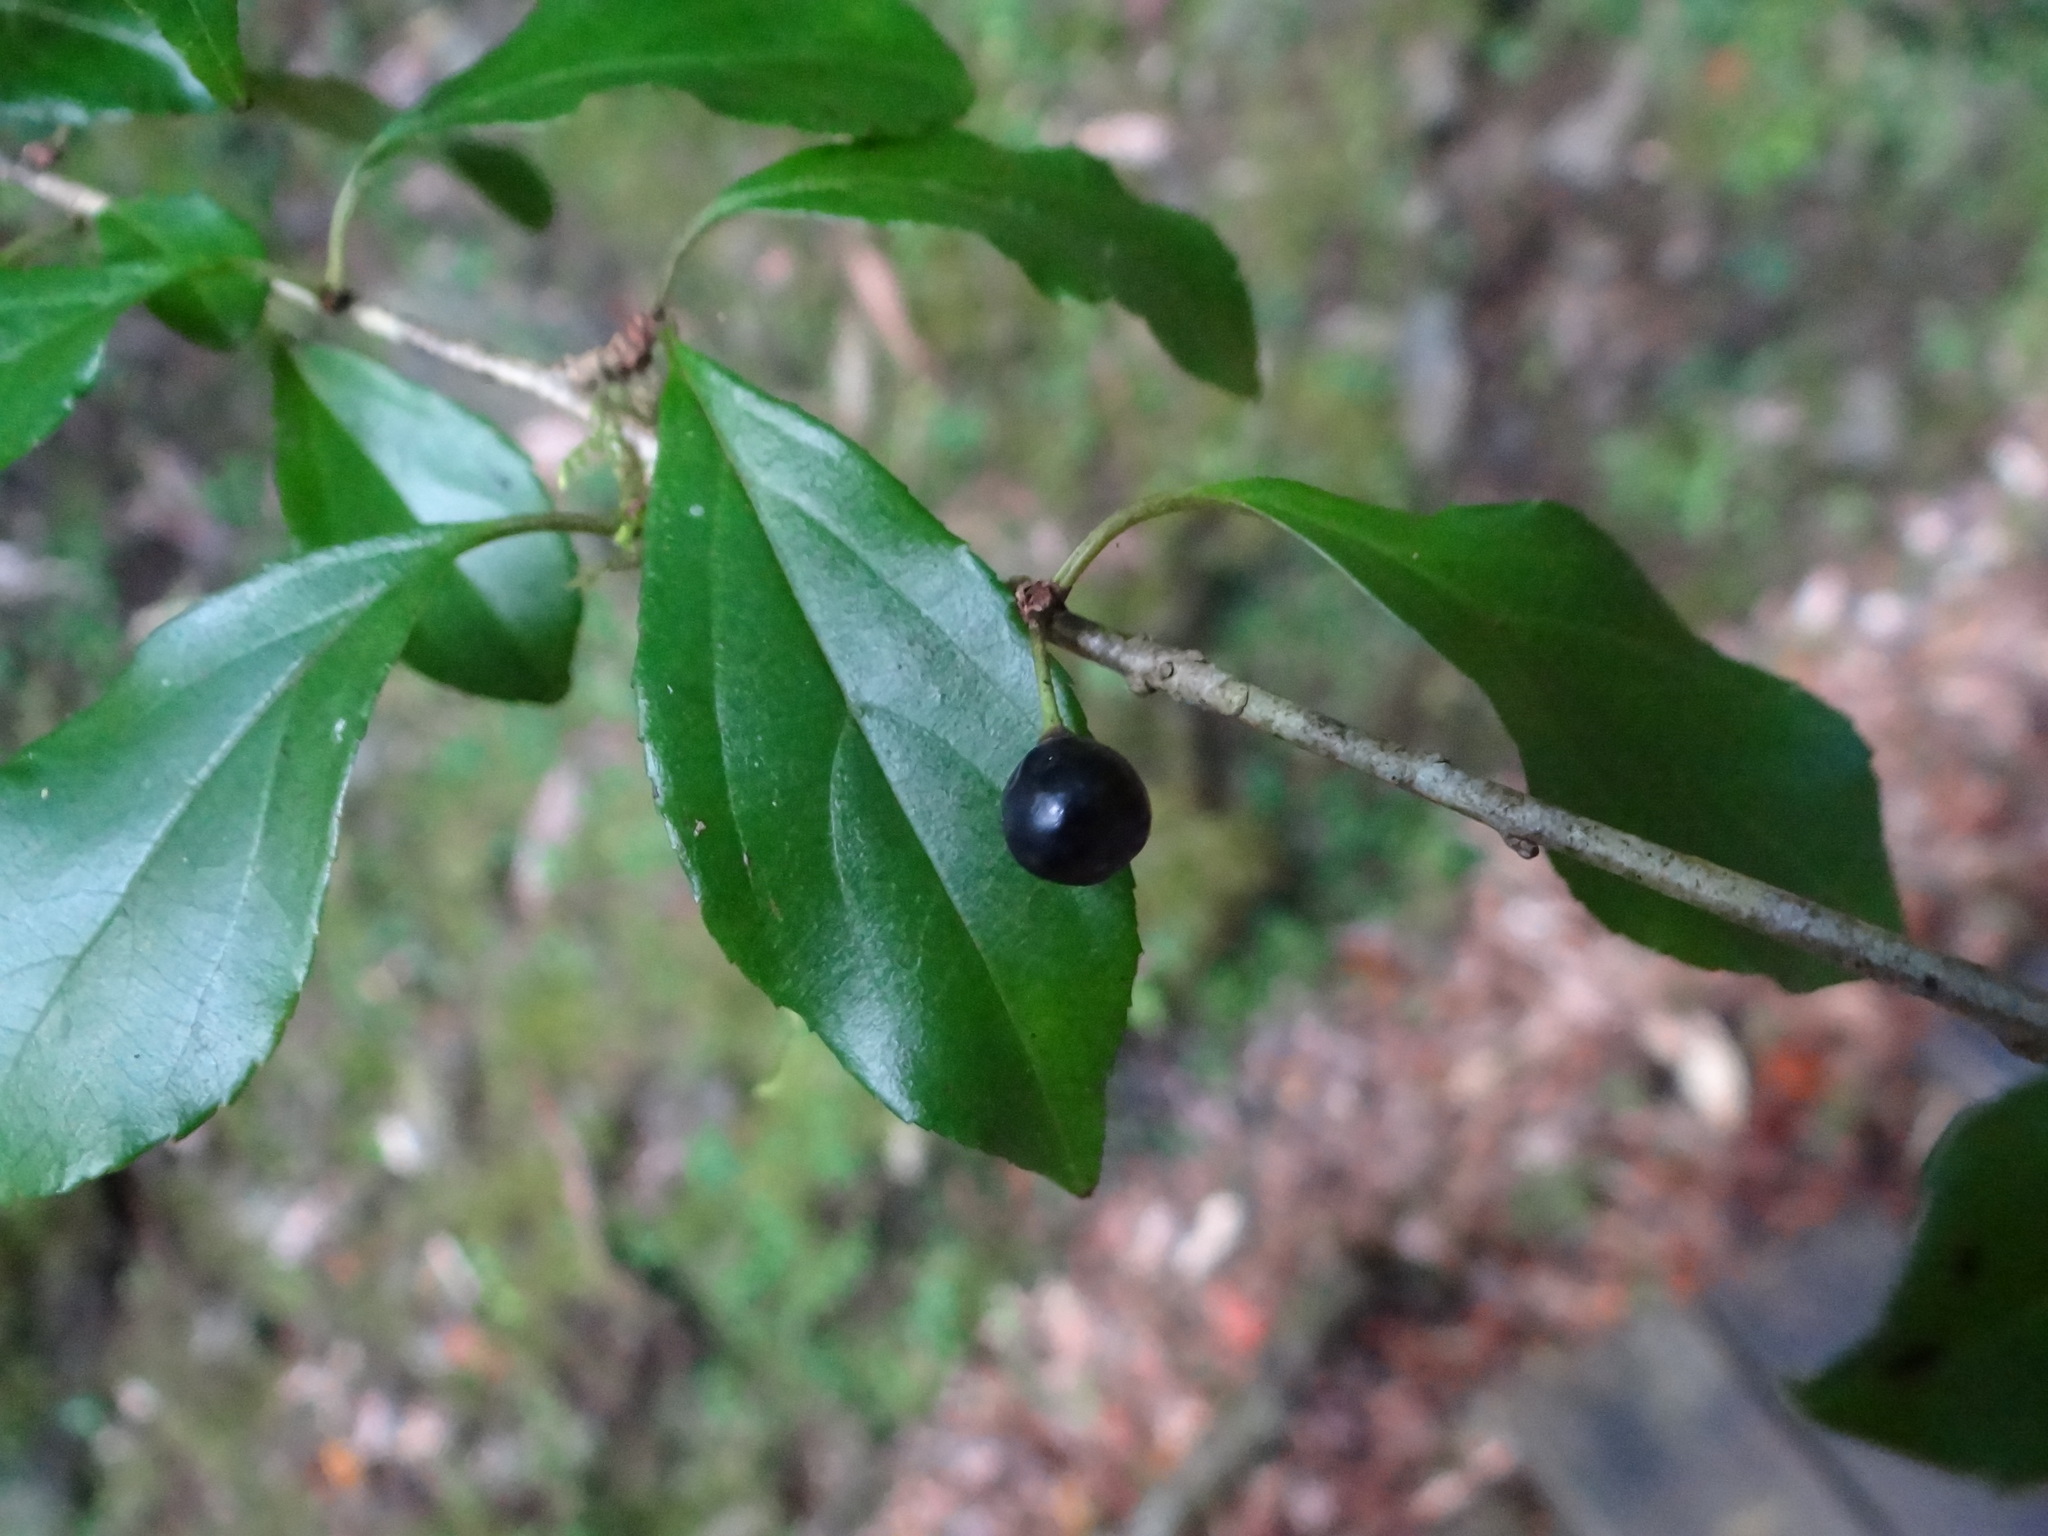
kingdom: Plantae
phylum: Tracheophyta
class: Magnoliopsida
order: Rosales
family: Rhamnaceae
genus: Rhamnus
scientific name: Rhamnus pilushanensis
